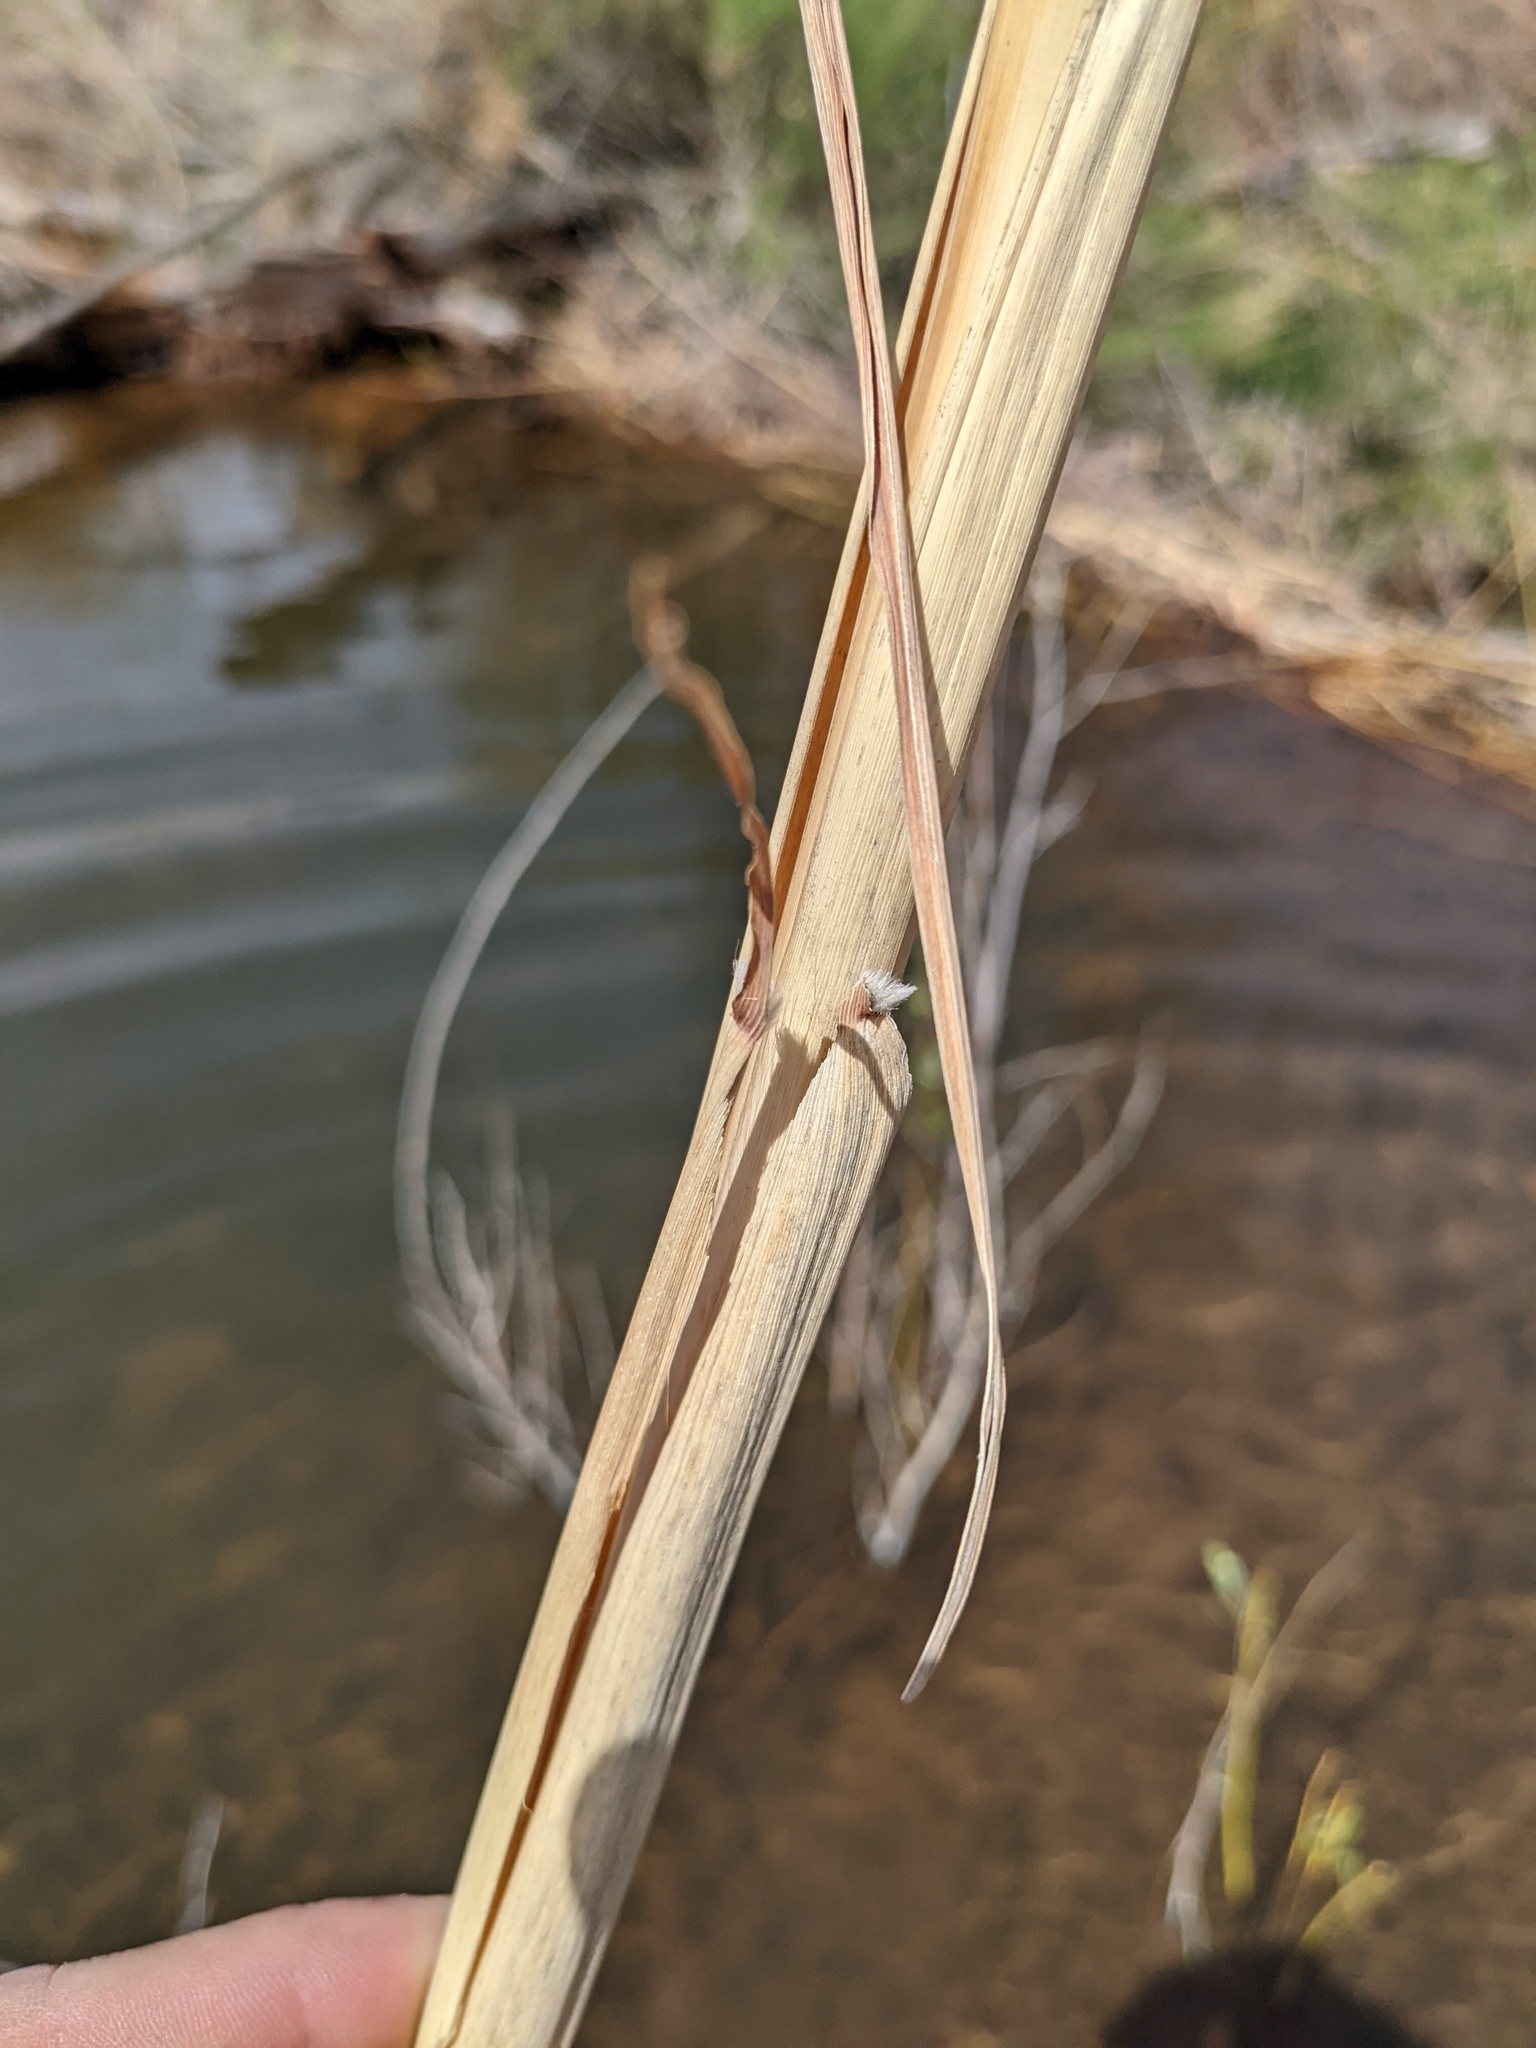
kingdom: Plantae
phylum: Tracheophyta
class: Liliopsida
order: Poales
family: Poaceae
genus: Tripidium
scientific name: Tripidium ravennae
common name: Ravenna grass
